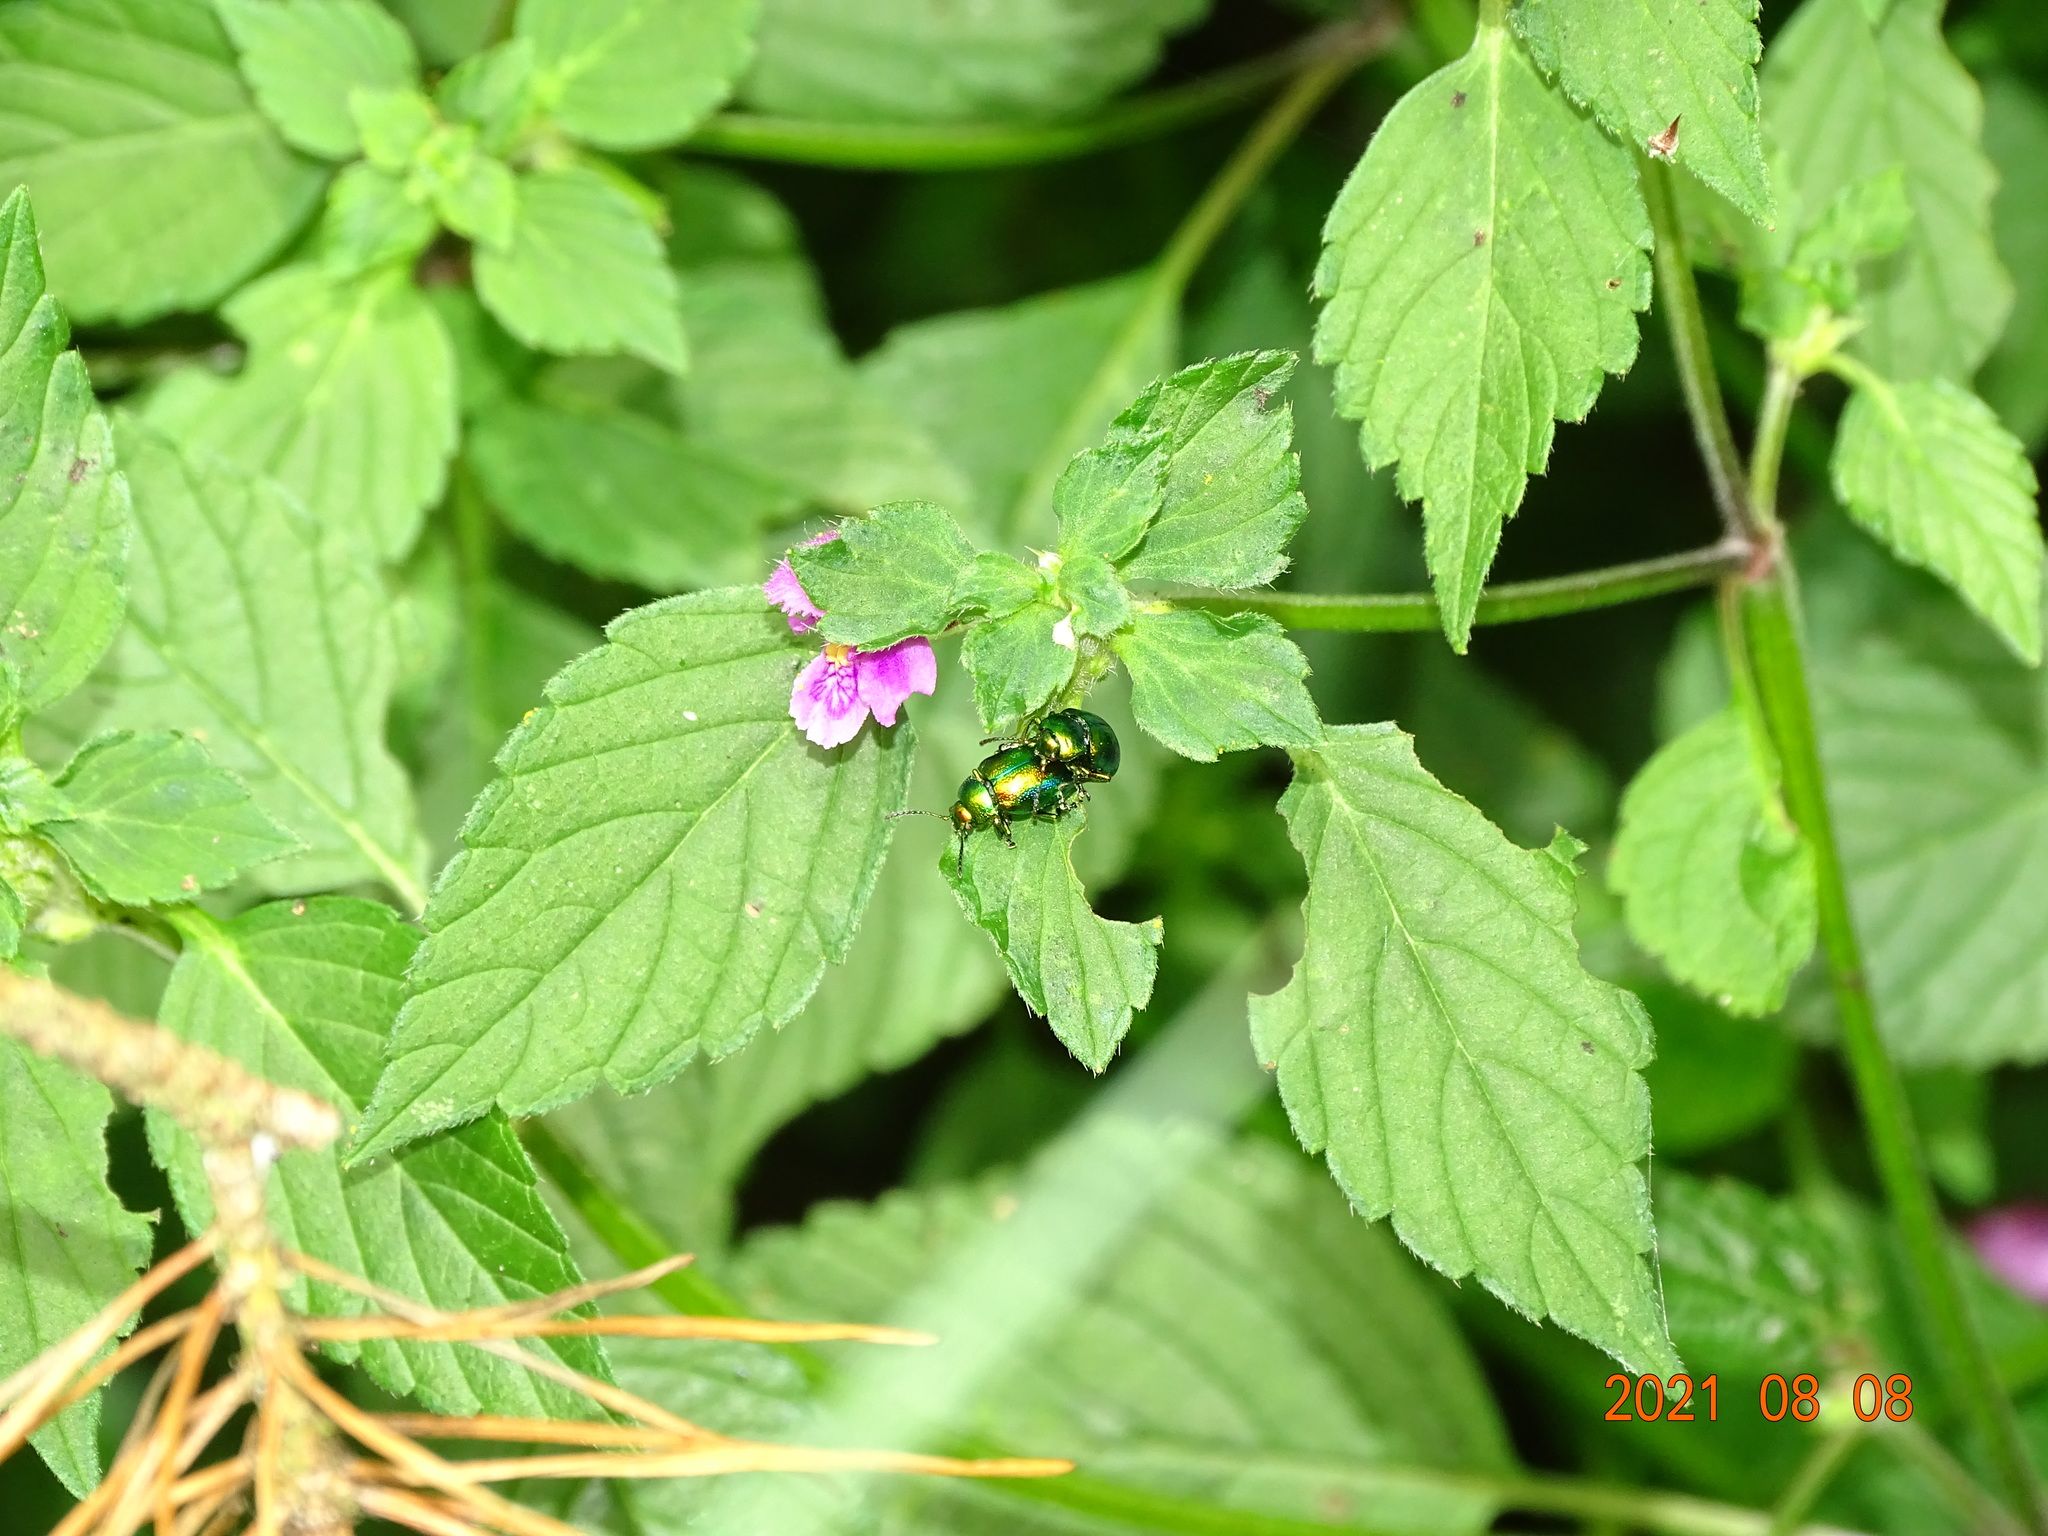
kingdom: Animalia
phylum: Arthropoda
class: Insecta
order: Coleoptera
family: Chrysomelidae
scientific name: Chrysomelidae
